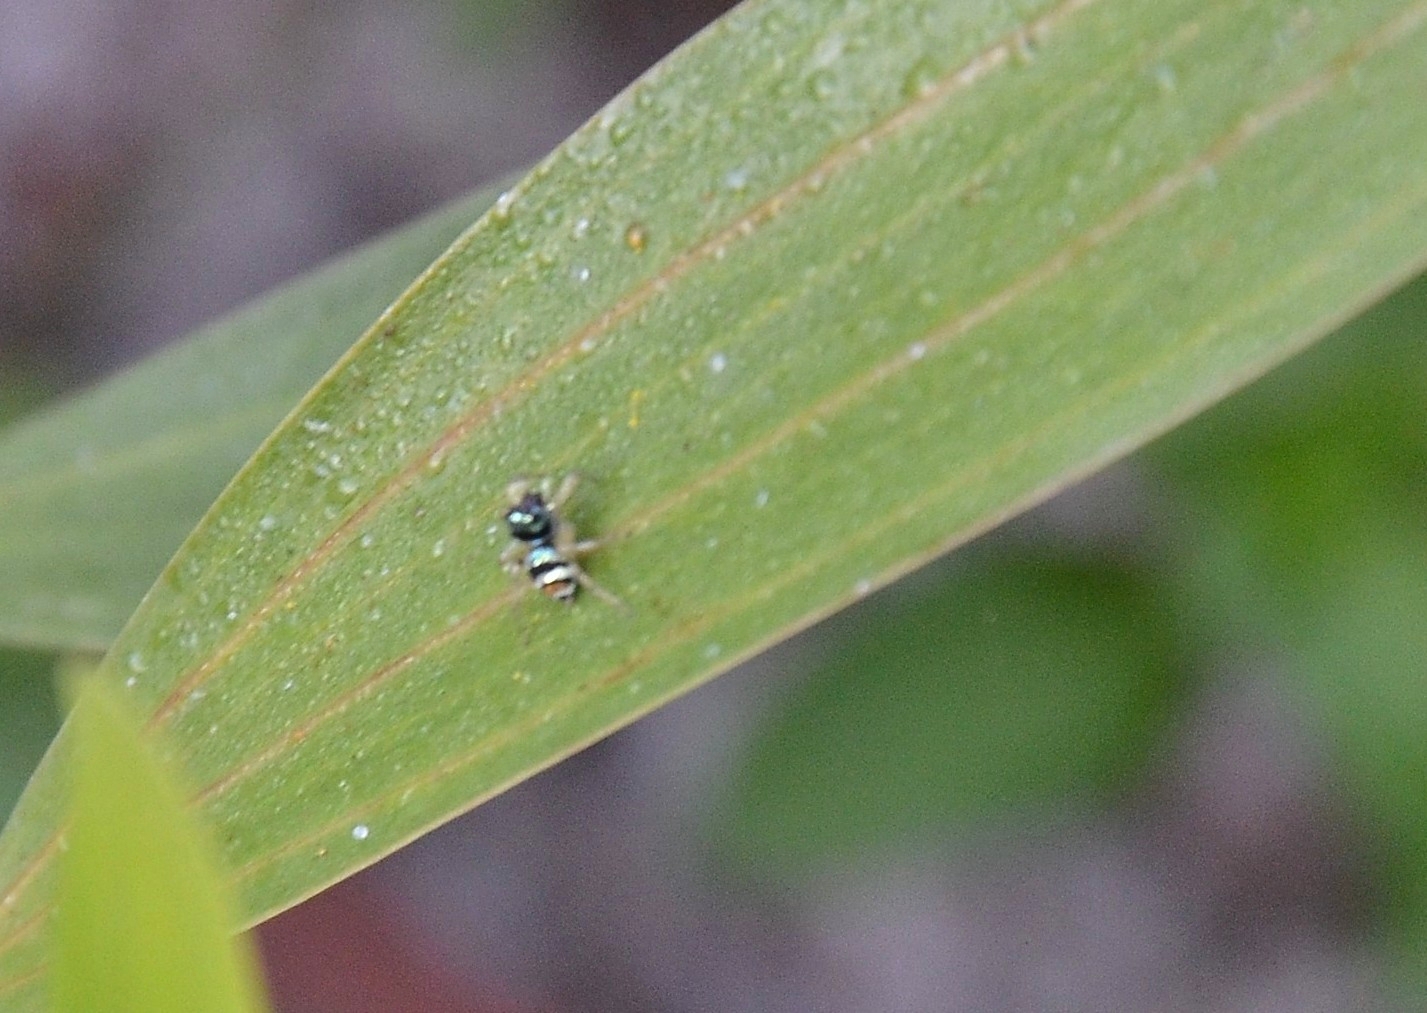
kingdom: Animalia
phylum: Arthropoda
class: Arachnida
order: Araneae
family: Salticidae
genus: Phintella
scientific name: Phintella vittata
